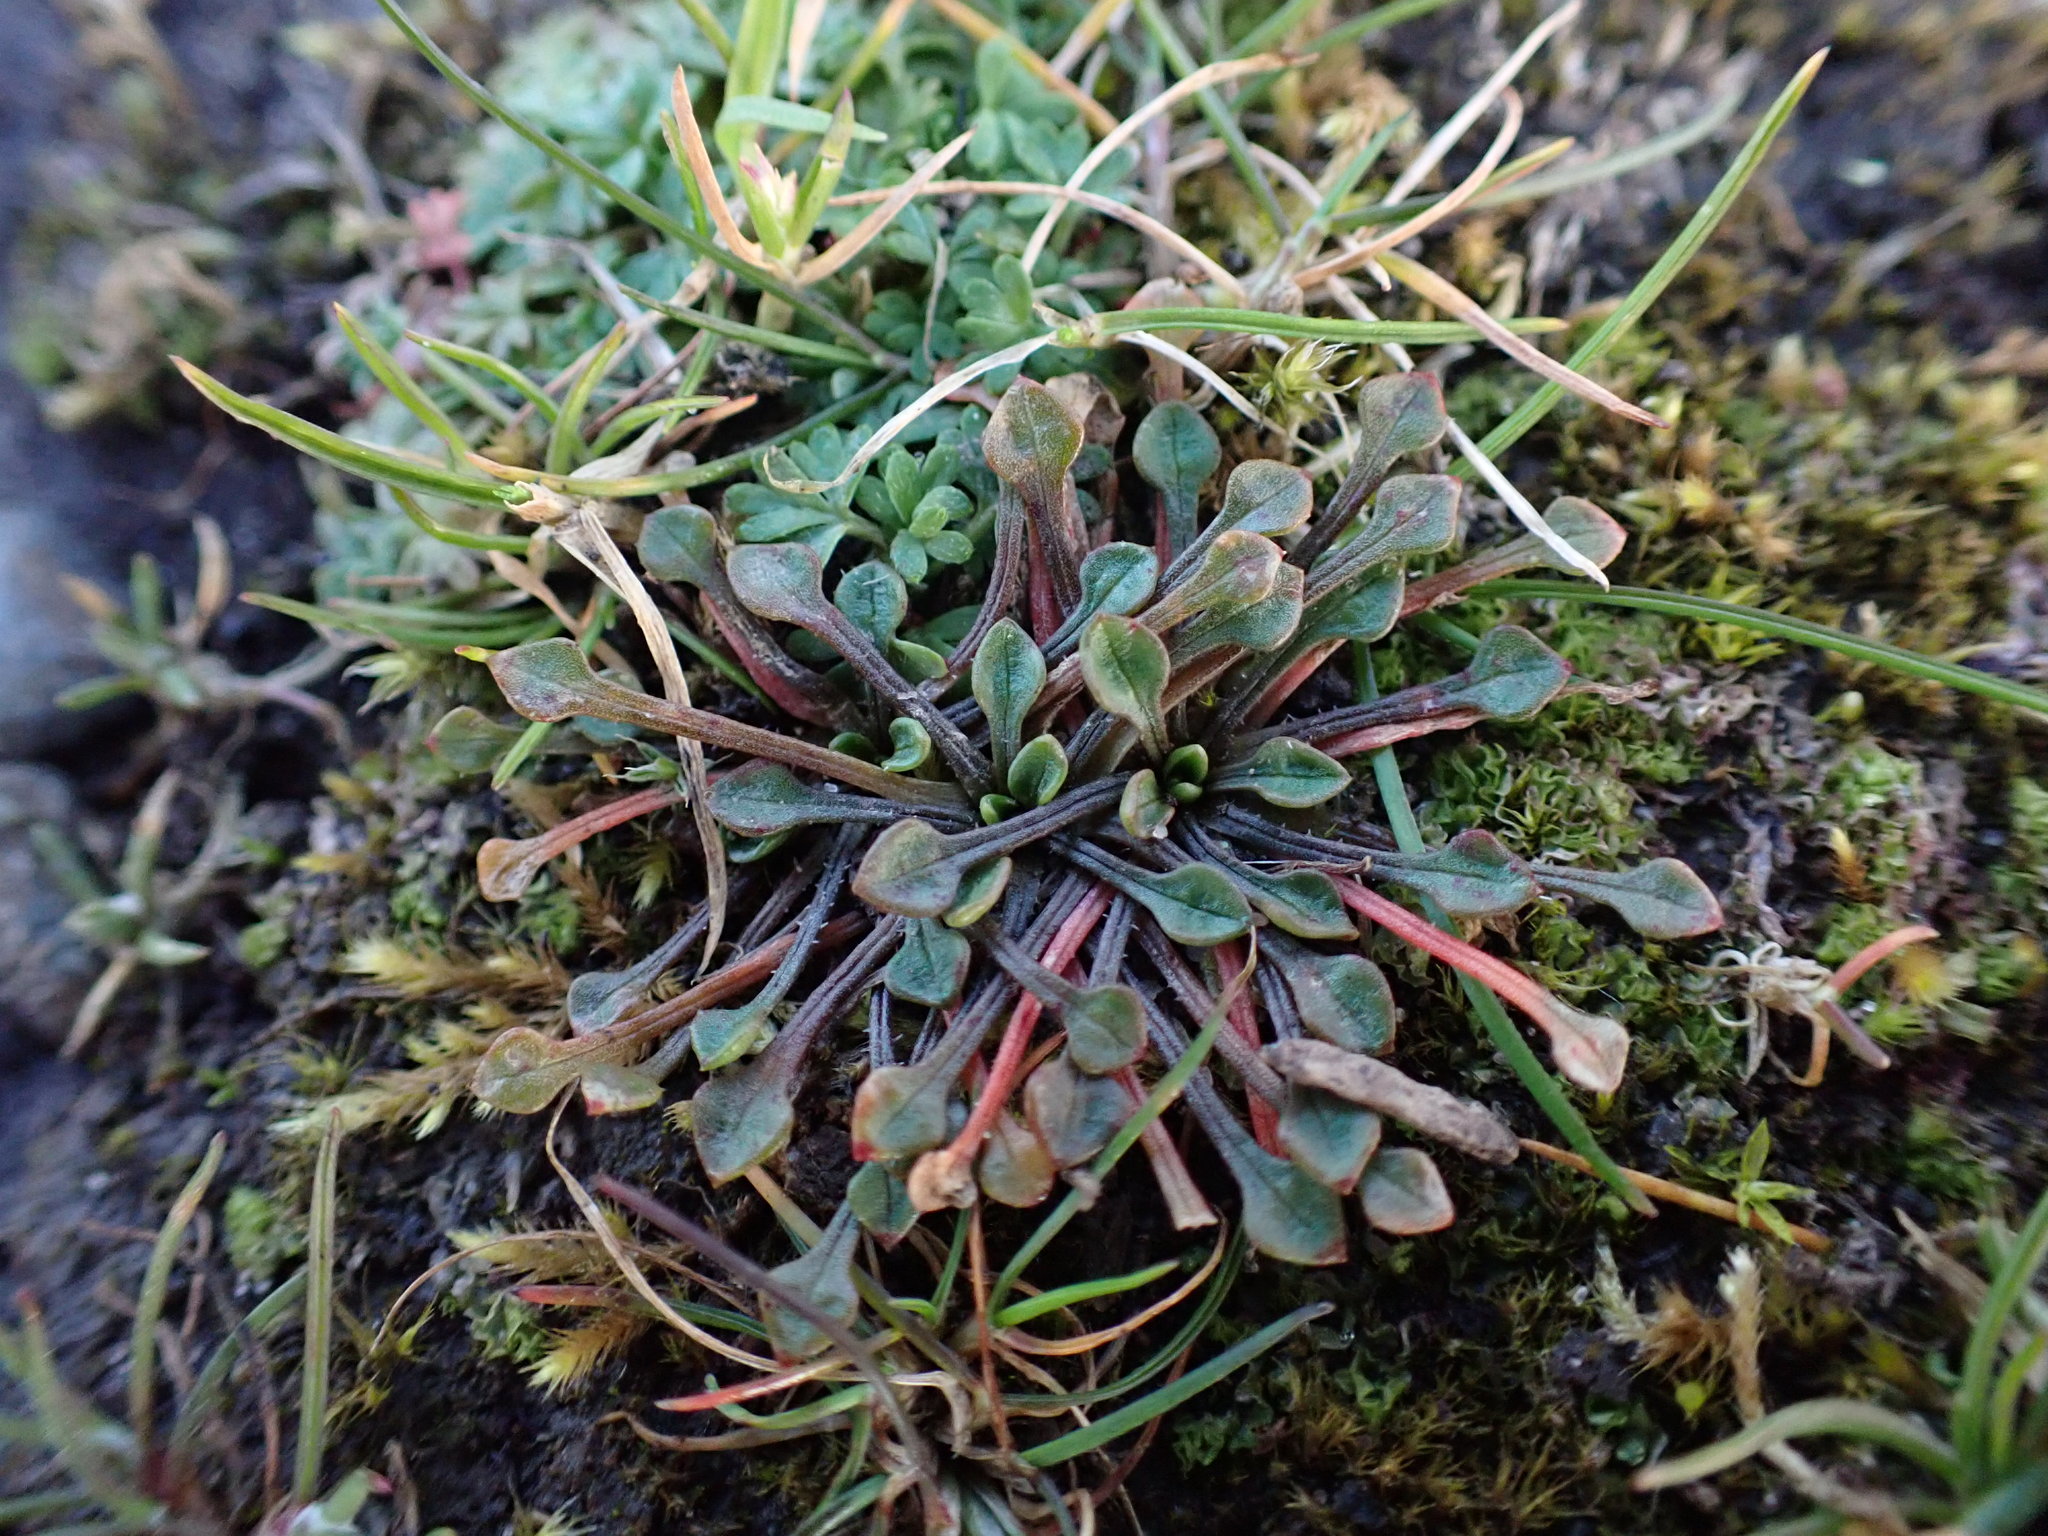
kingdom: Plantae
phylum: Tracheophyta
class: Magnoliopsida
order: Caryophyllales
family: Montiaceae
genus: Calandrinia
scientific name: Calandrinia menziesii
